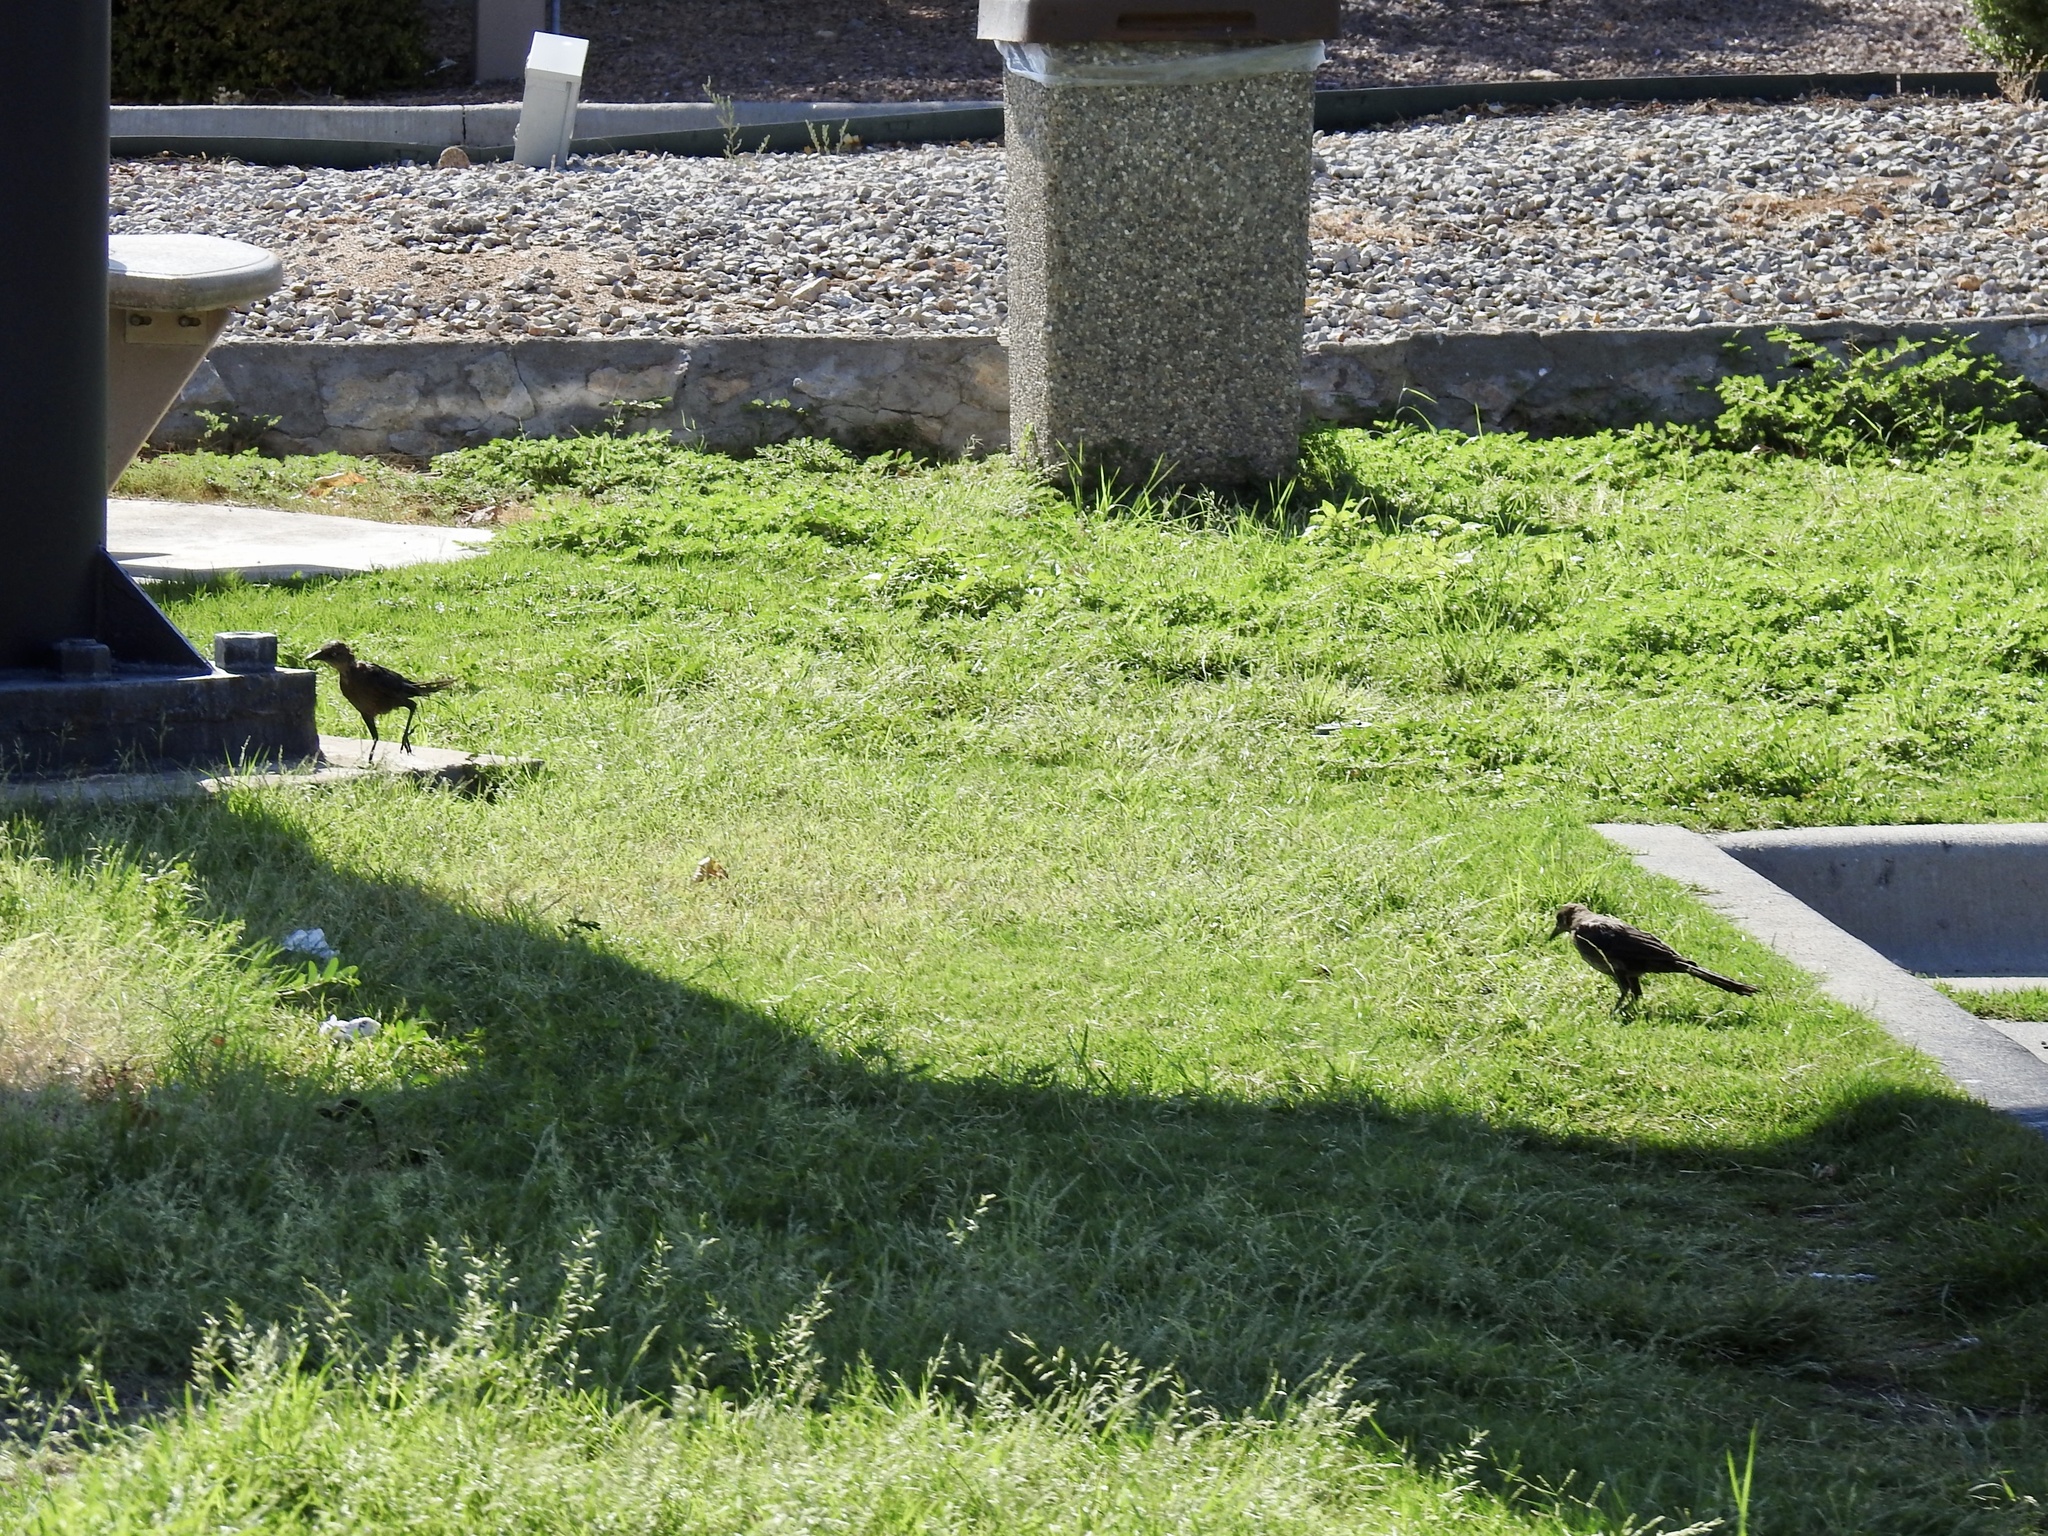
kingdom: Animalia
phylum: Chordata
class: Aves
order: Passeriformes
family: Icteridae
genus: Quiscalus
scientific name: Quiscalus mexicanus
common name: Great-tailed grackle
